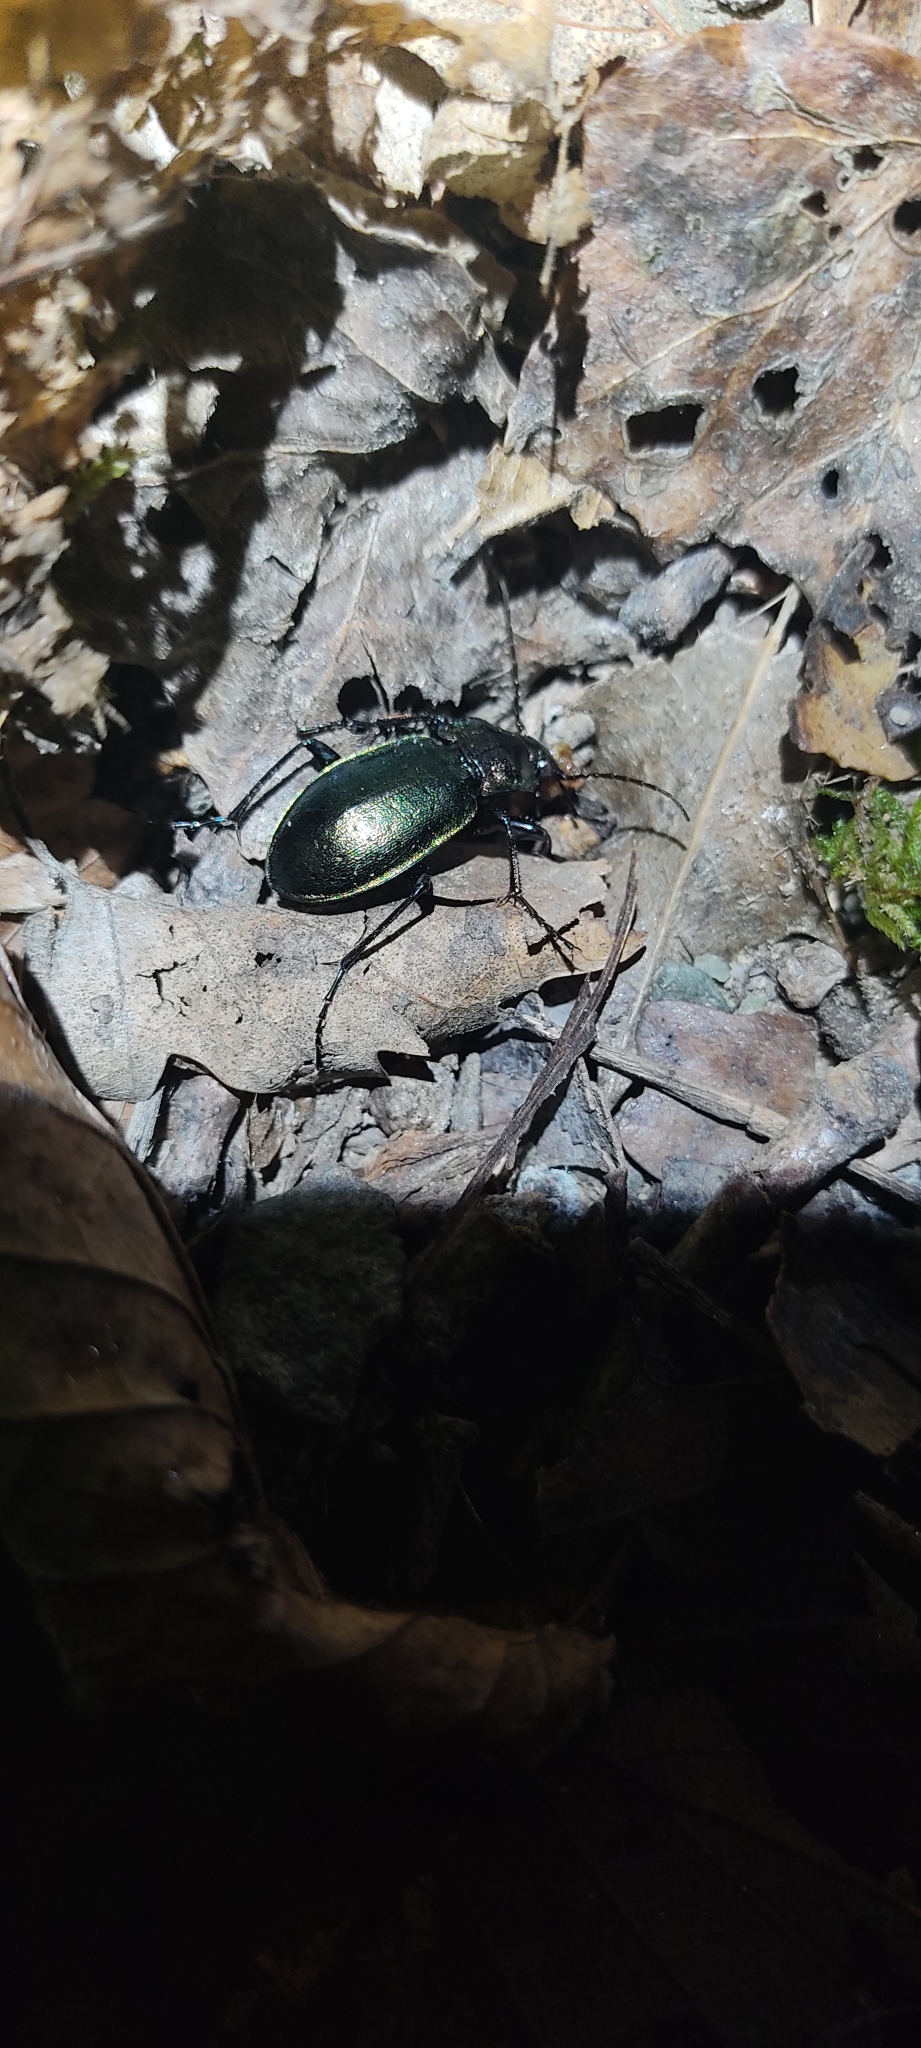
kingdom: Animalia
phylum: Arthropoda
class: Insecta
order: Coleoptera
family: Carabidae
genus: Carabus
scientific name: Carabus nemoralis
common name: European ground beetle
